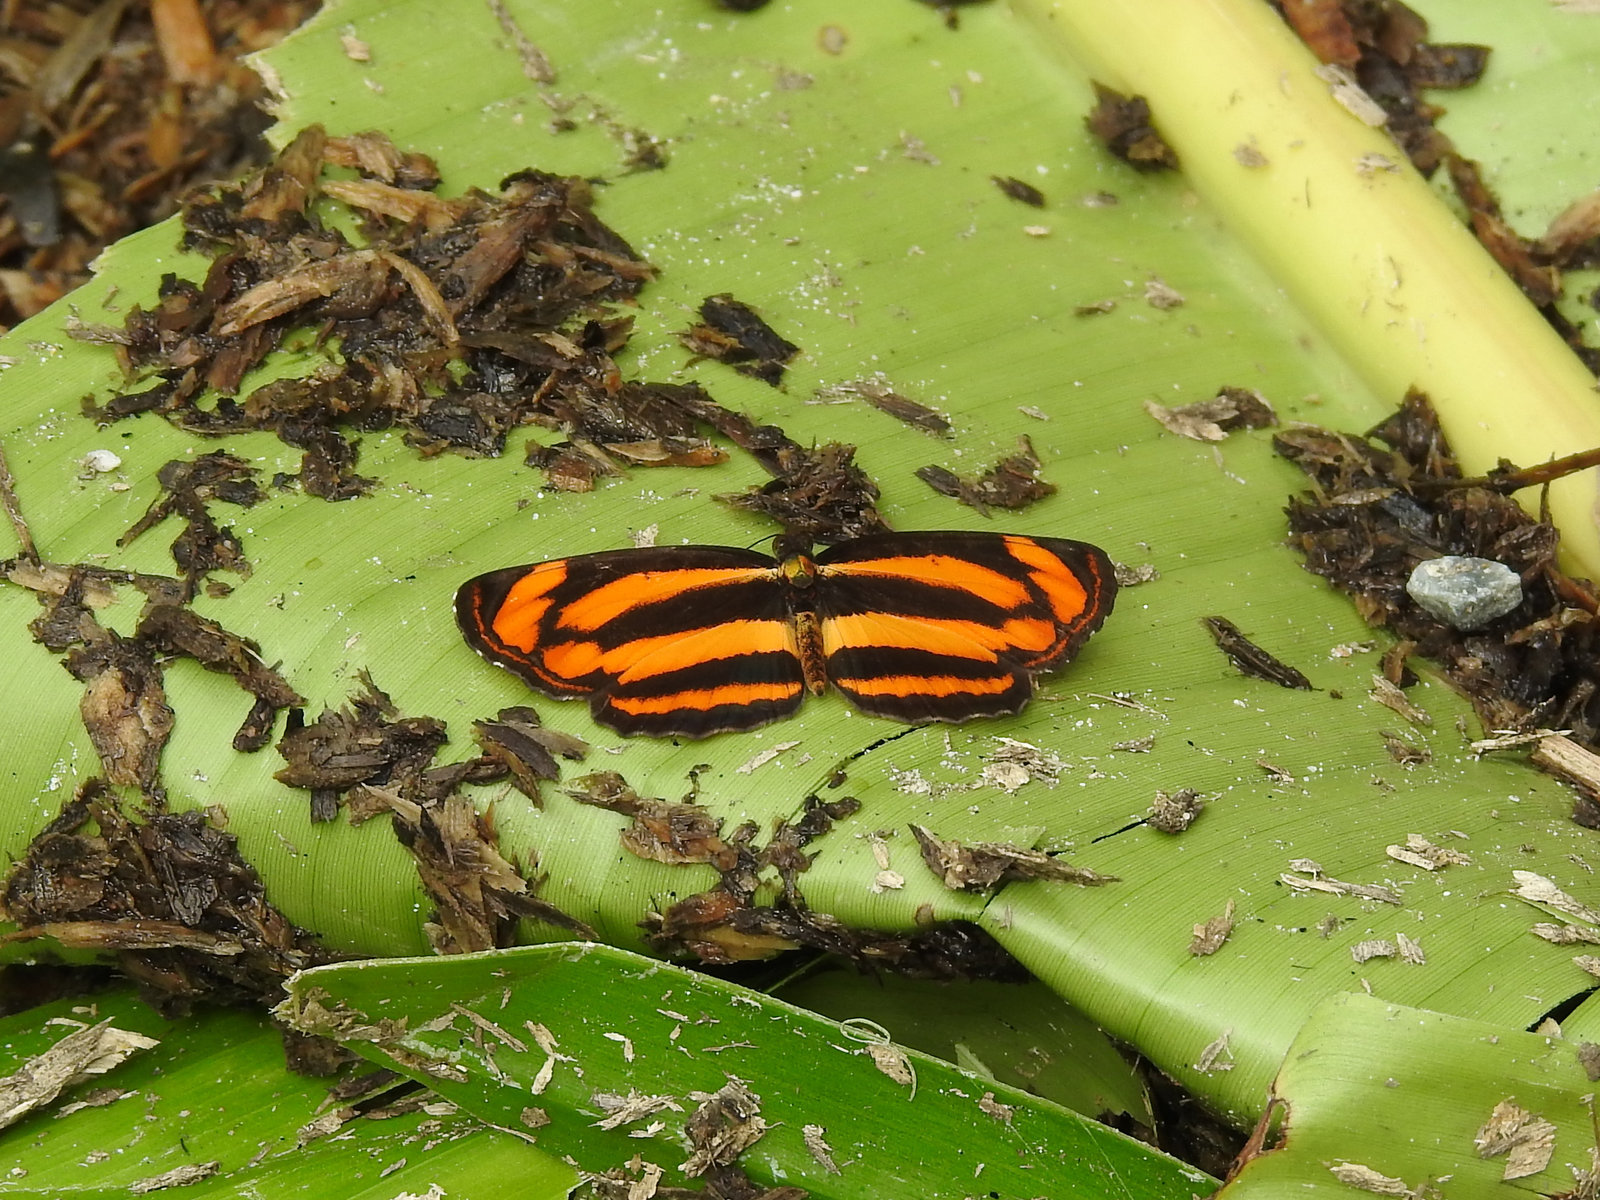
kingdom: Animalia
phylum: Arthropoda
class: Insecta
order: Lepidoptera
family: Nymphalidae
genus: Pantoporia
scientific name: Pantoporia hordonia
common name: Common lascar
